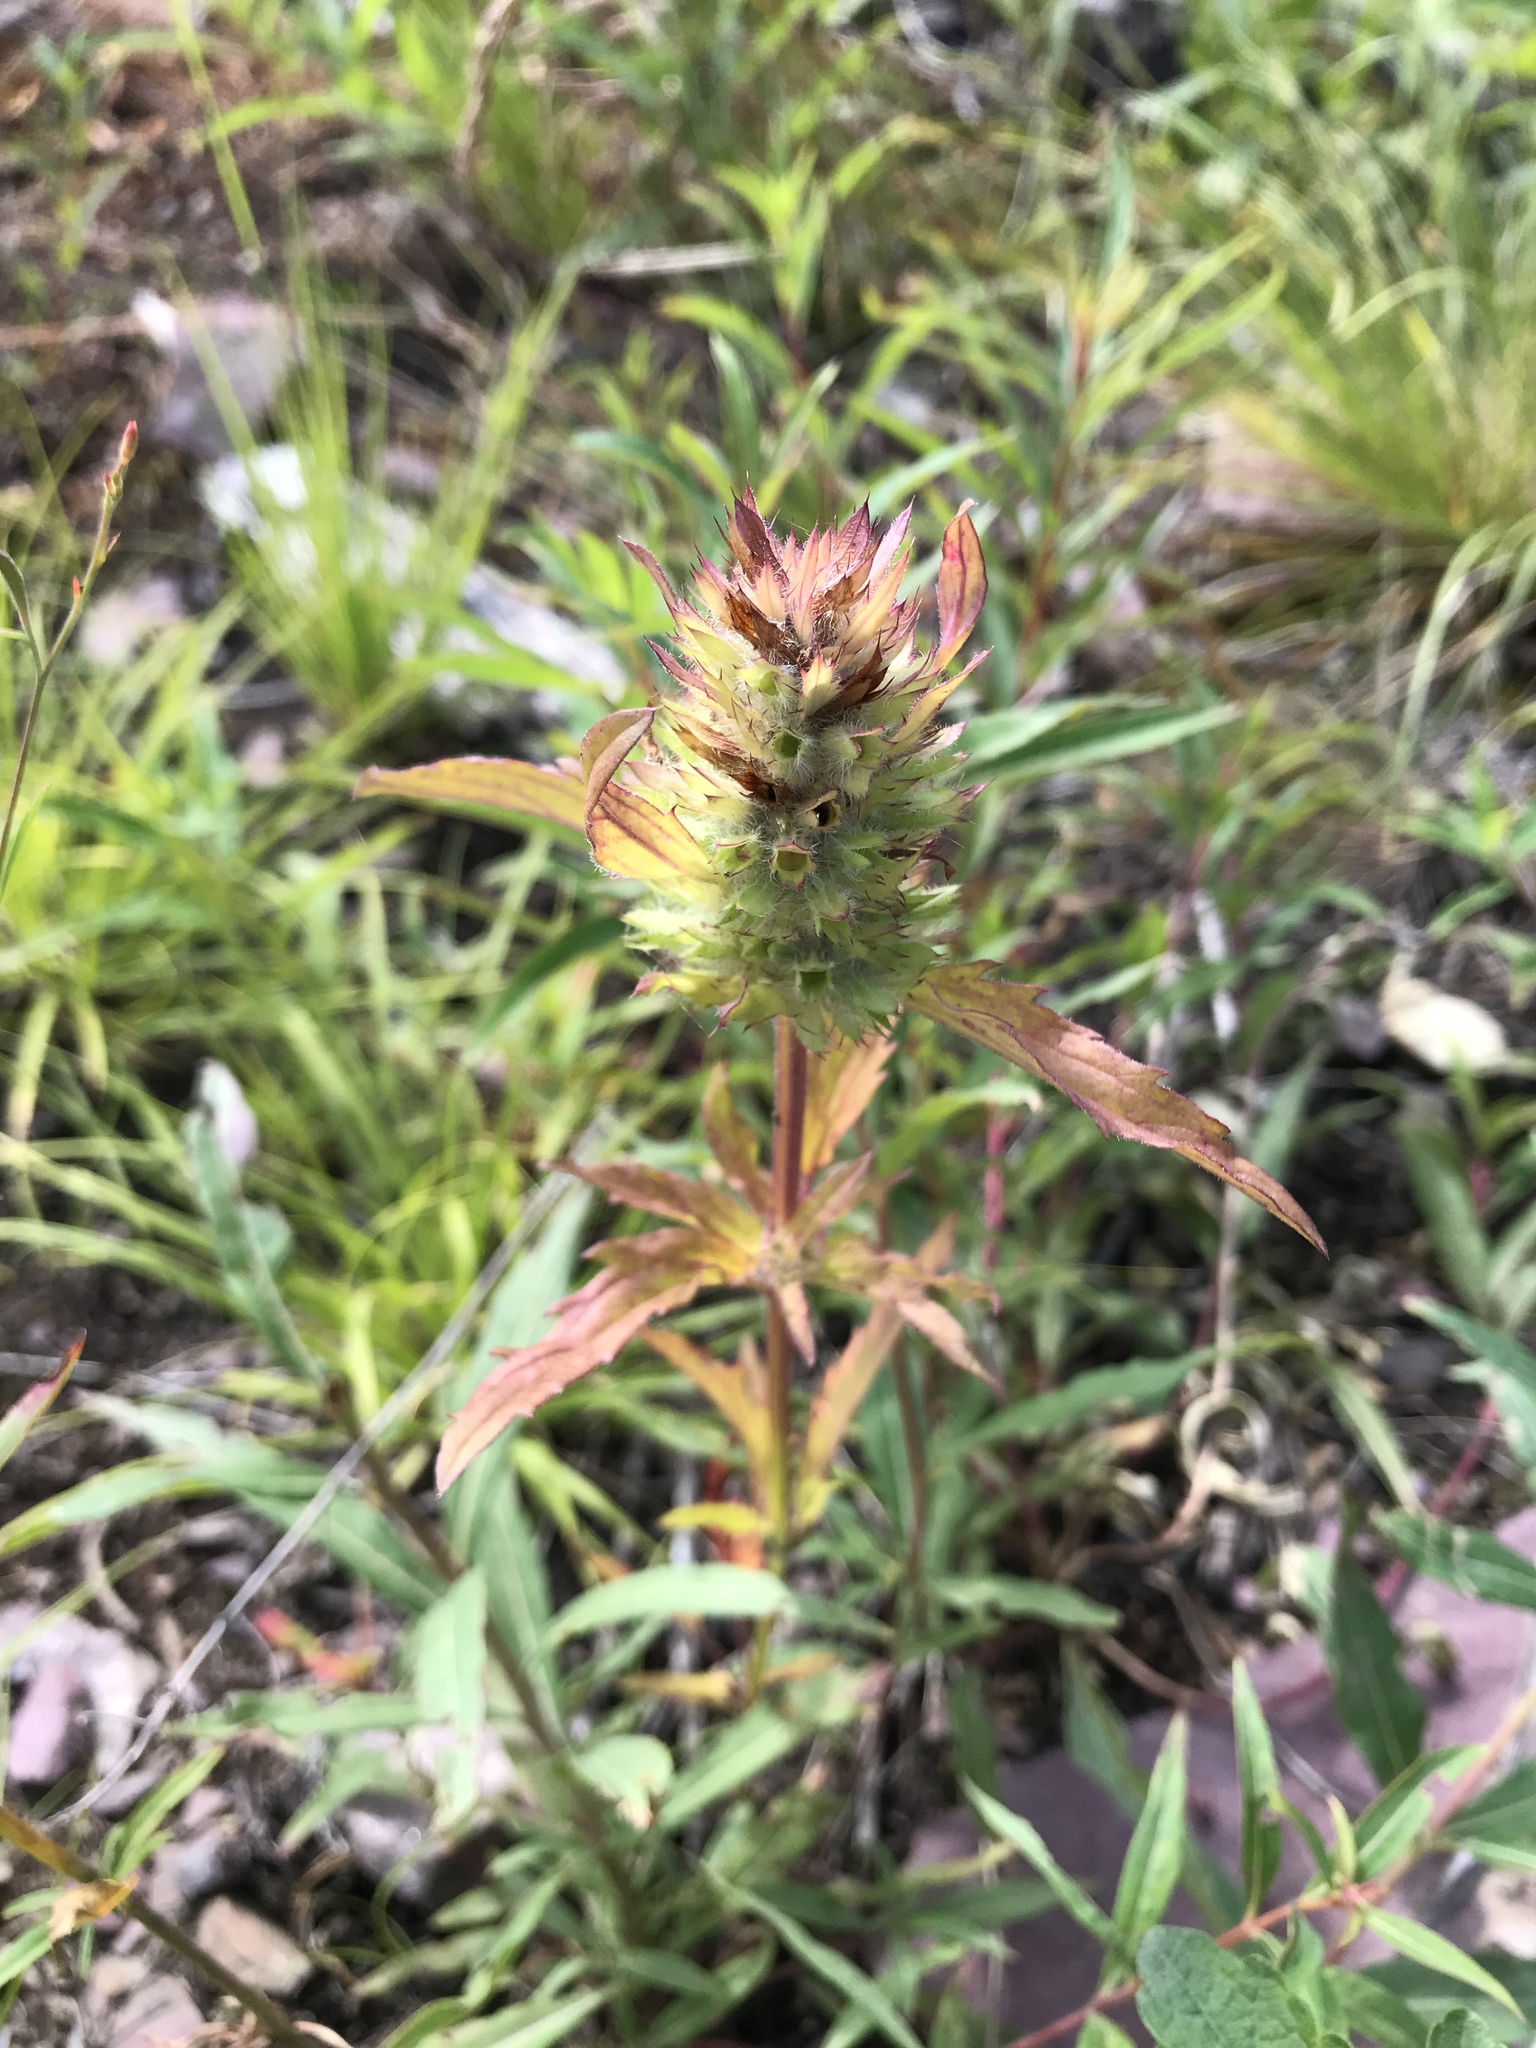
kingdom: Plantae
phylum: Tracheophyta
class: Magnoliopsida
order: Lamiales
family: Lamiaceae
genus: Dracocephalum
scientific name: Dracocephalum parviflorum
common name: American dragonhead
